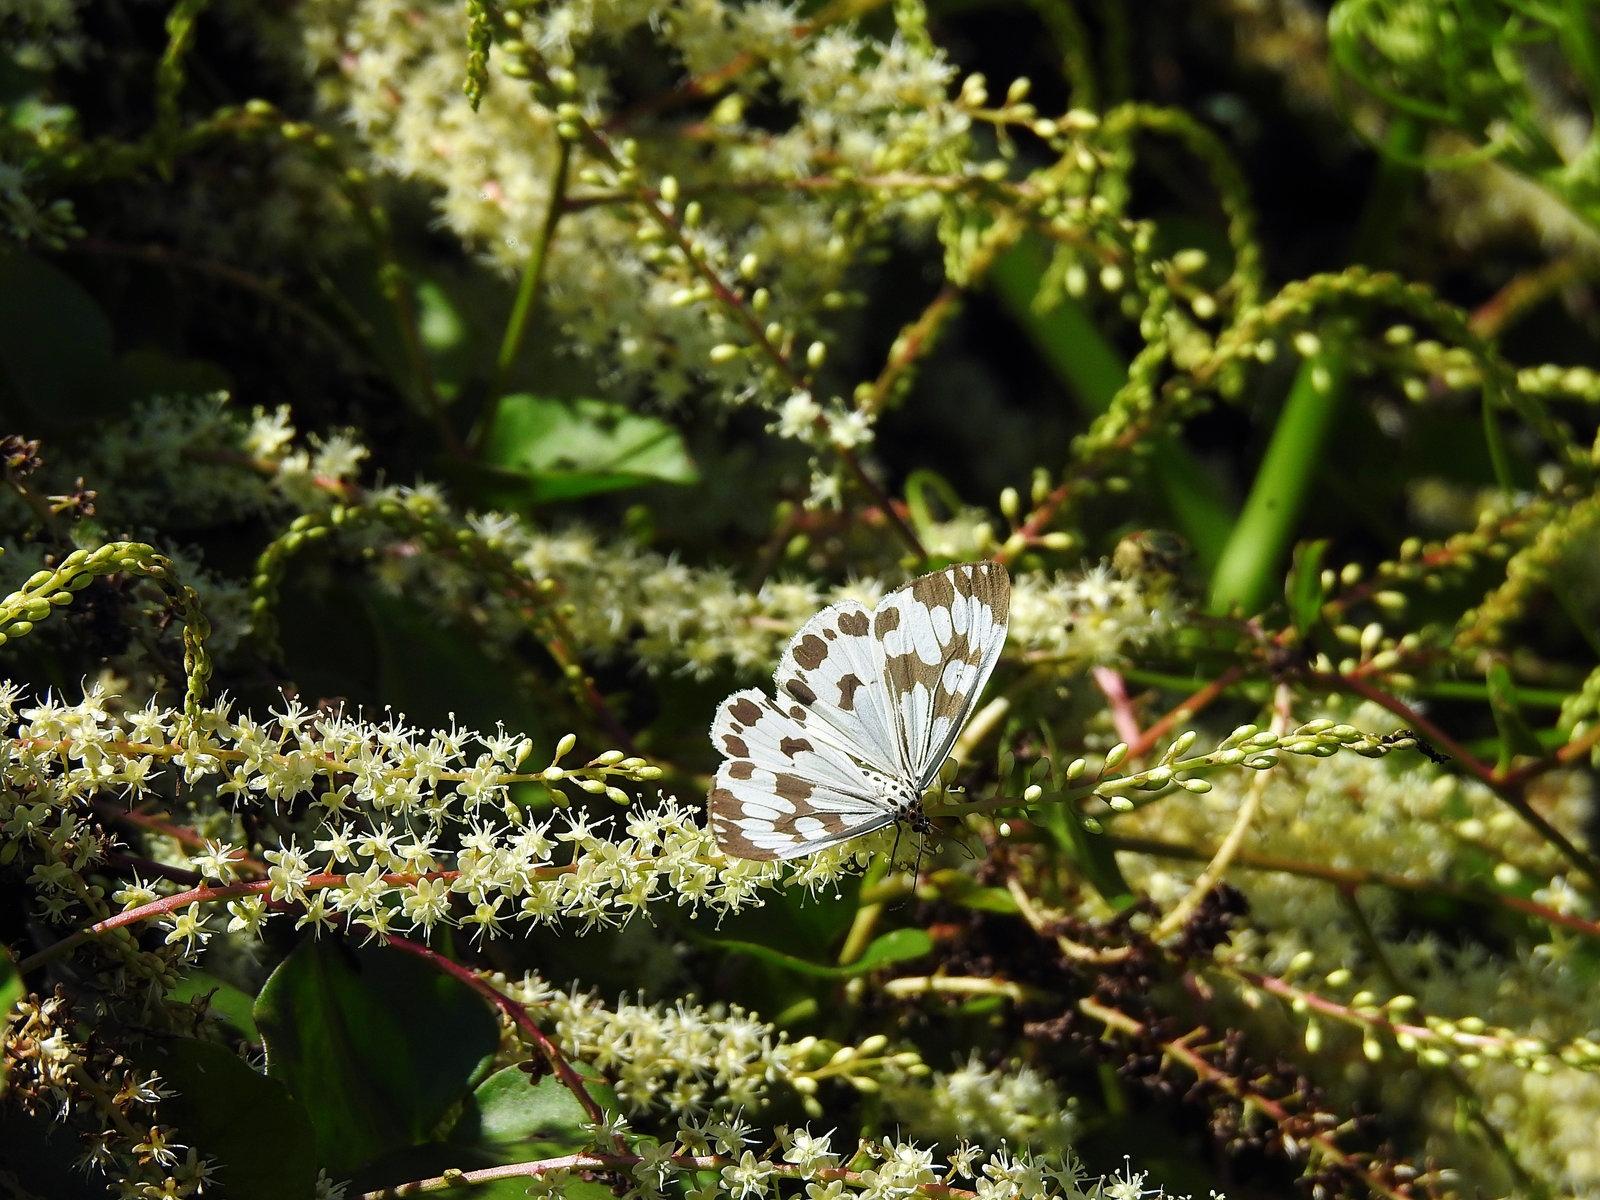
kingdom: Animalia
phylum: Arthropoda
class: Insecta
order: Lepidoptera
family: Erebidae
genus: Nyctemera
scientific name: Nyctemera adversata
